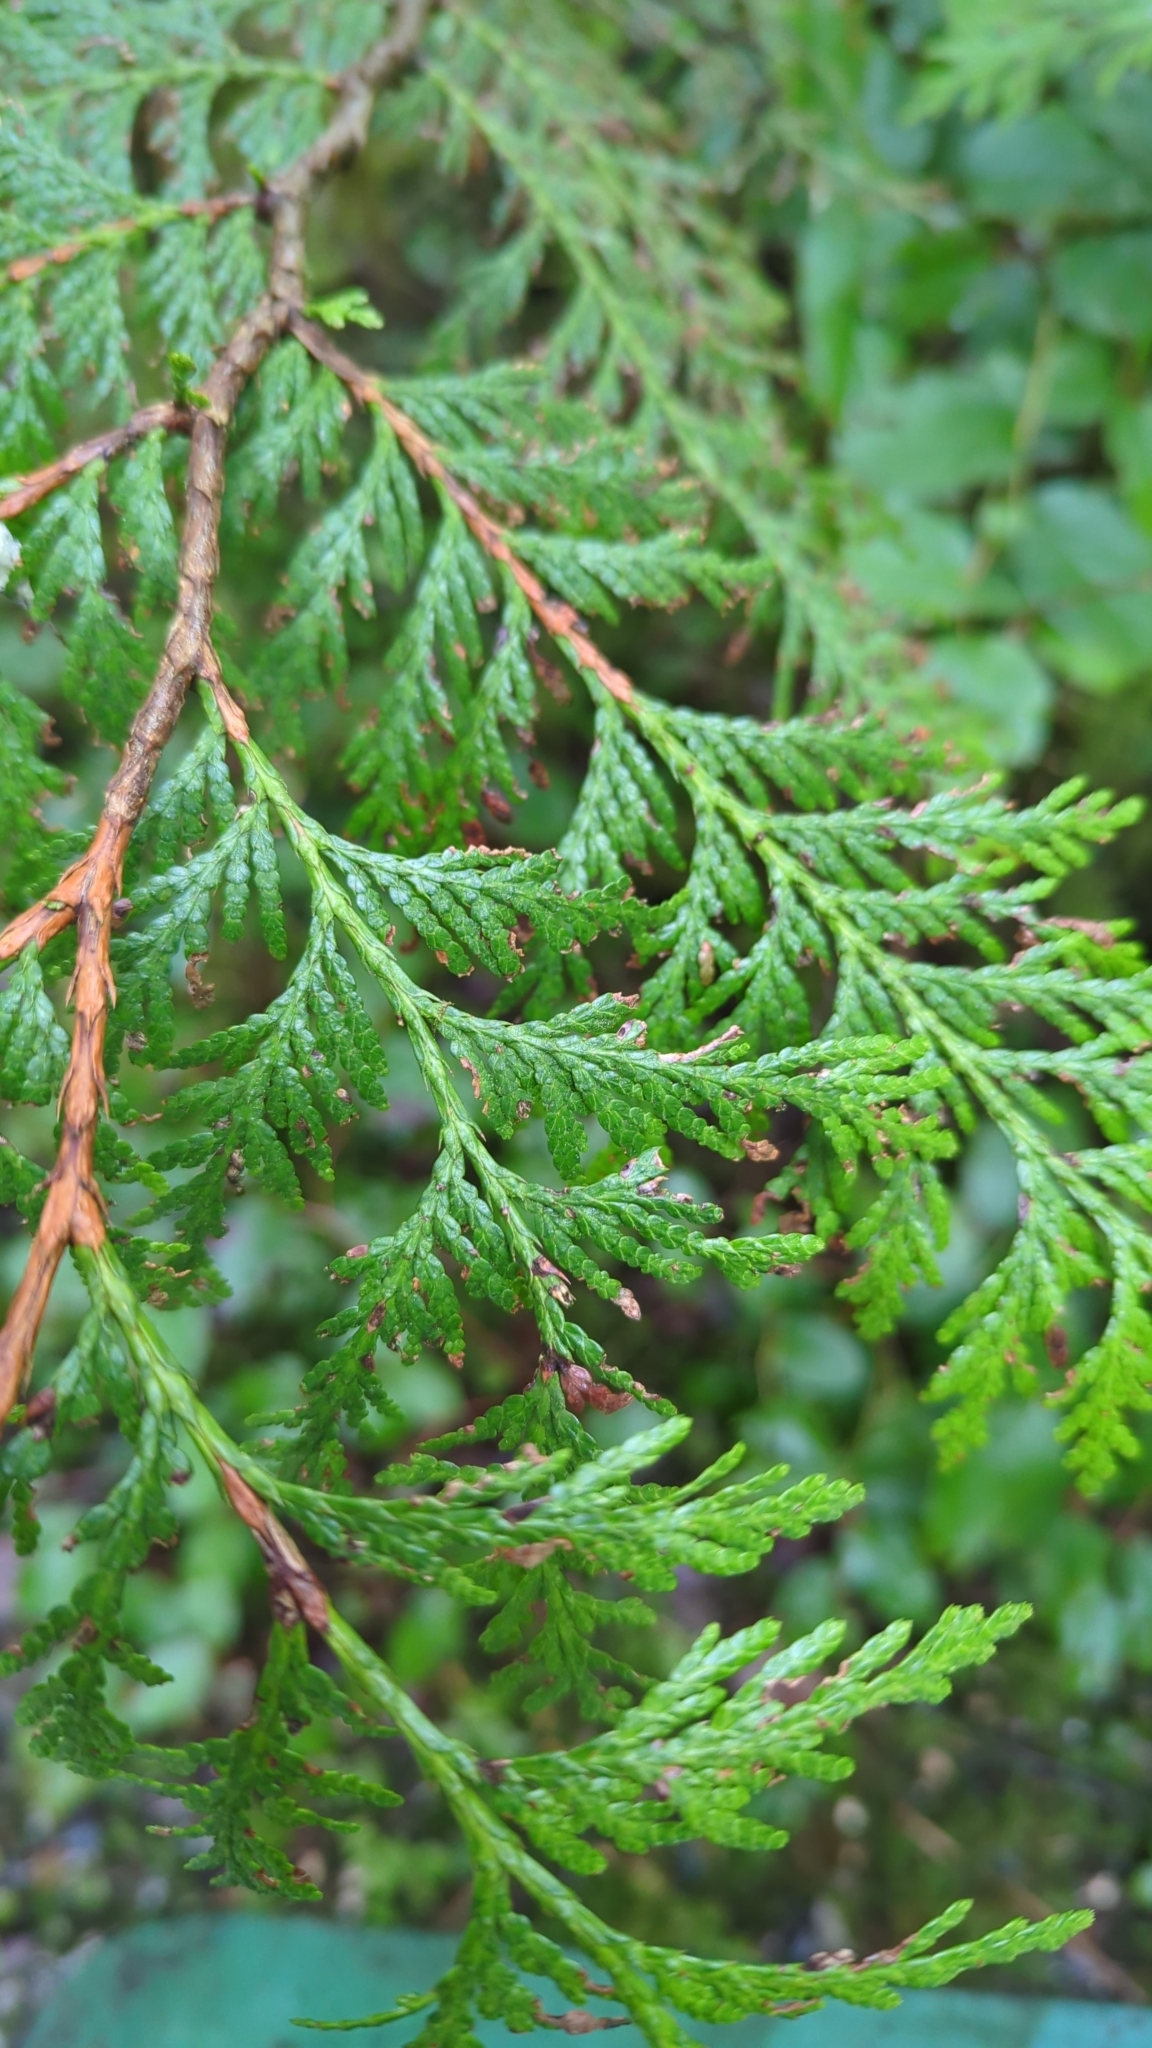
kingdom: Plantae
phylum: Tracheophyta
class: Pinopsida
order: Pinales
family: Cupressaceae
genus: Thuja
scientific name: Thuja plicata
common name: Western red-cedar
